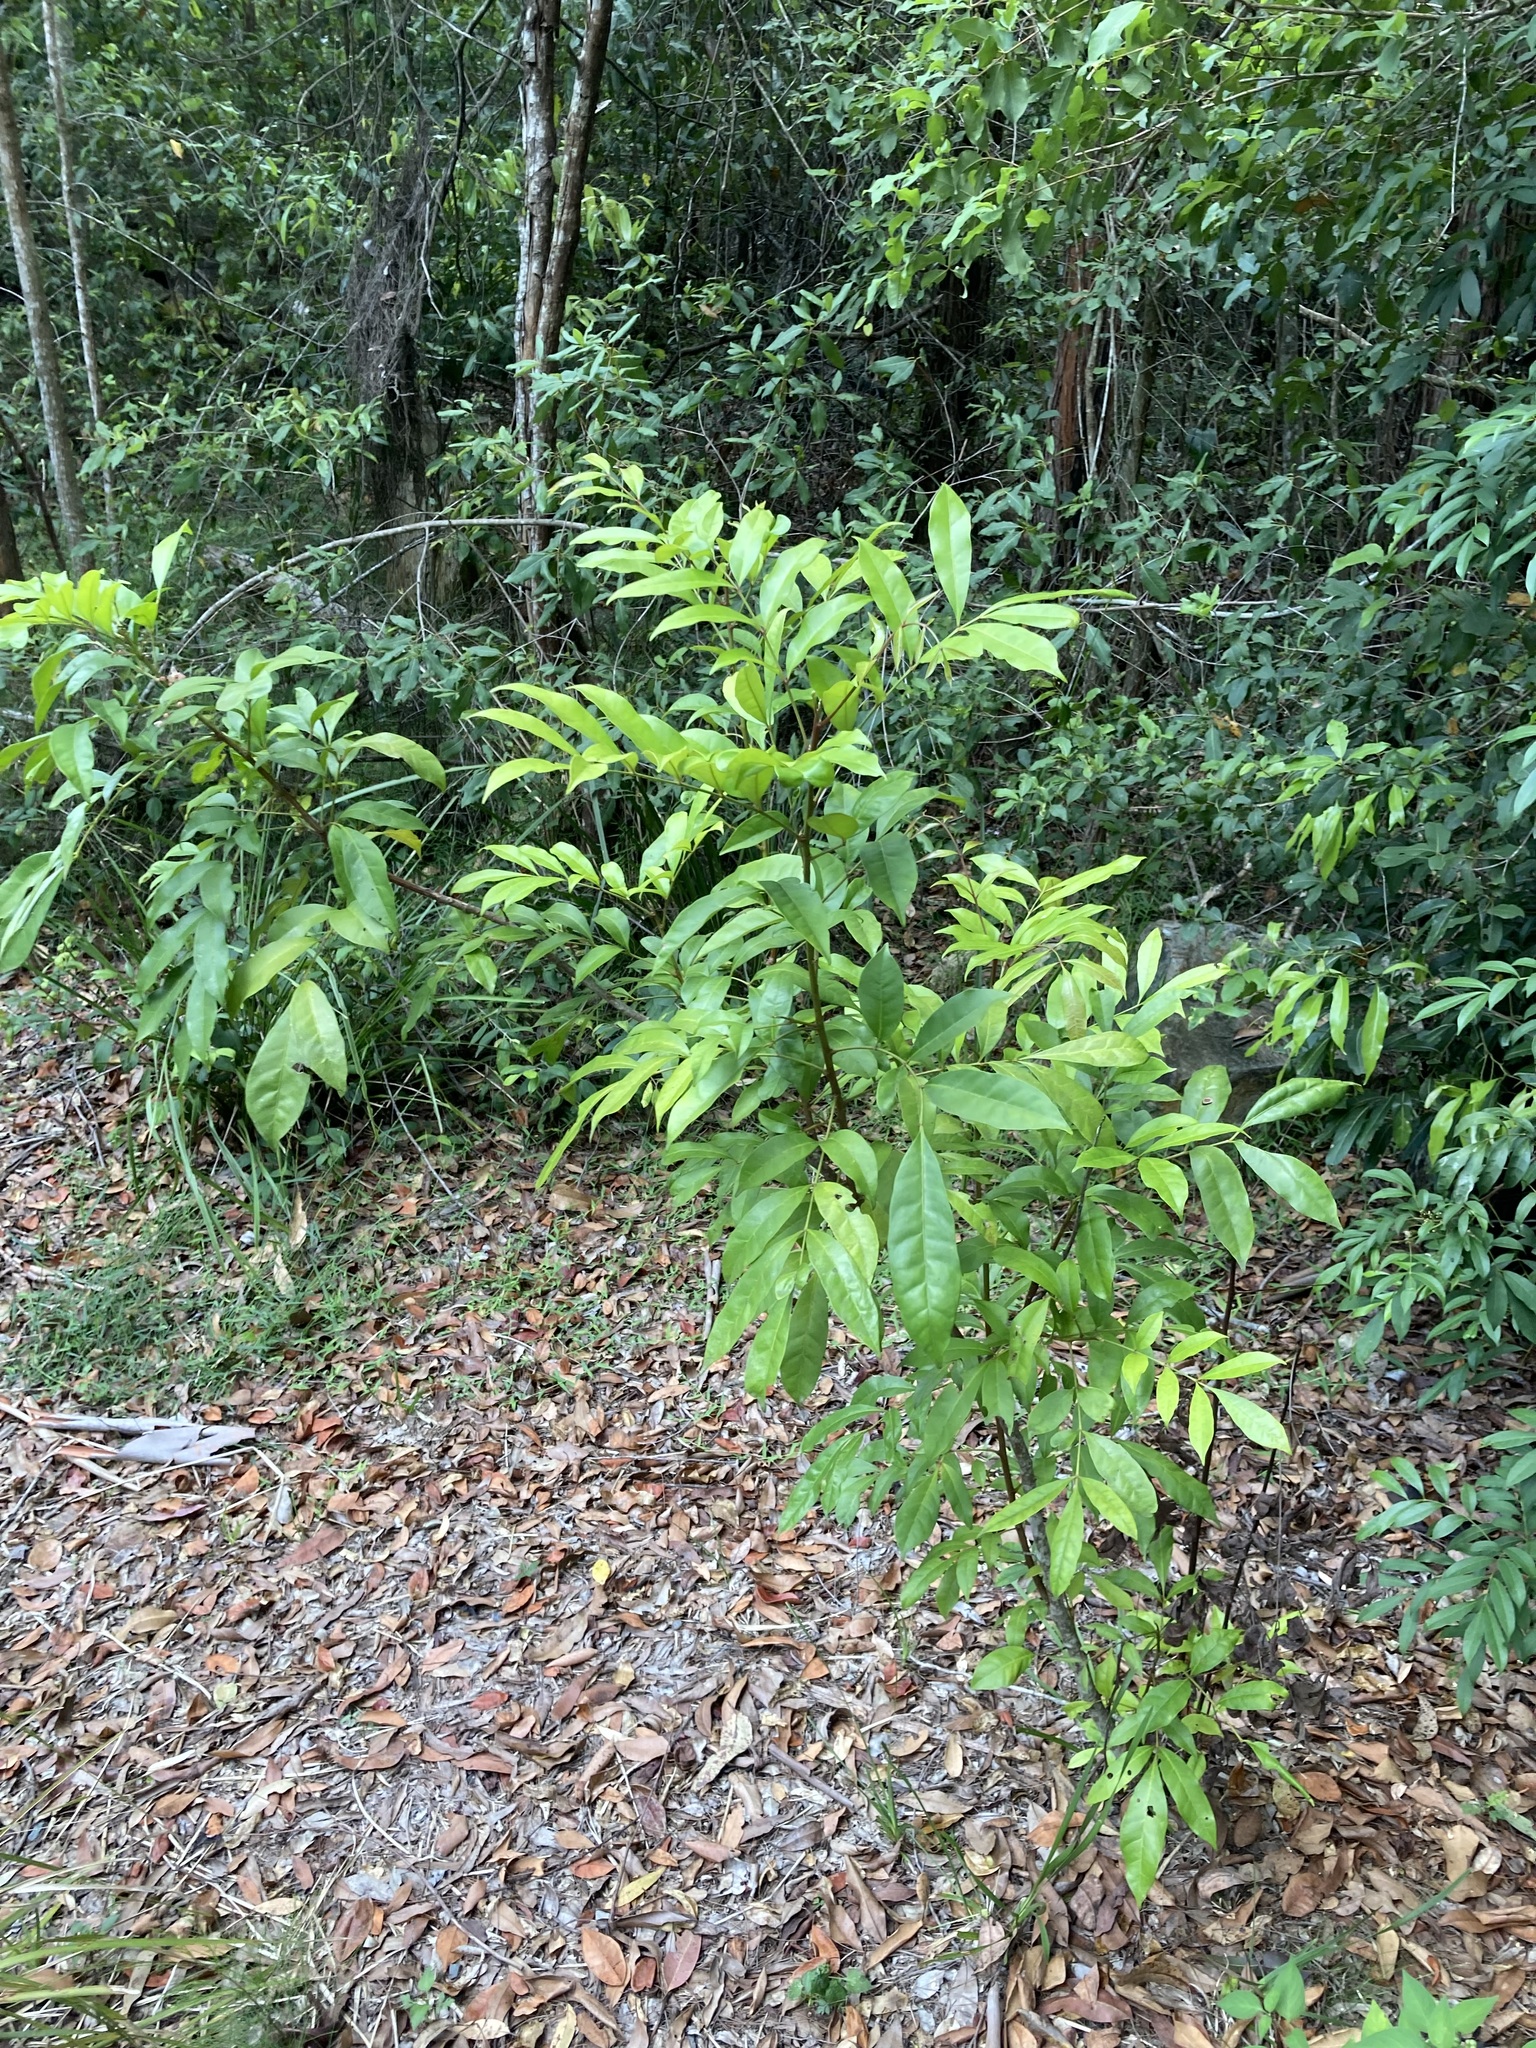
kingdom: Plantae
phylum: Tracheophyta
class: Magnoliopsida
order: Sapindales
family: Meliaceae
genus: Synoum
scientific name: Synoum glandulosum
